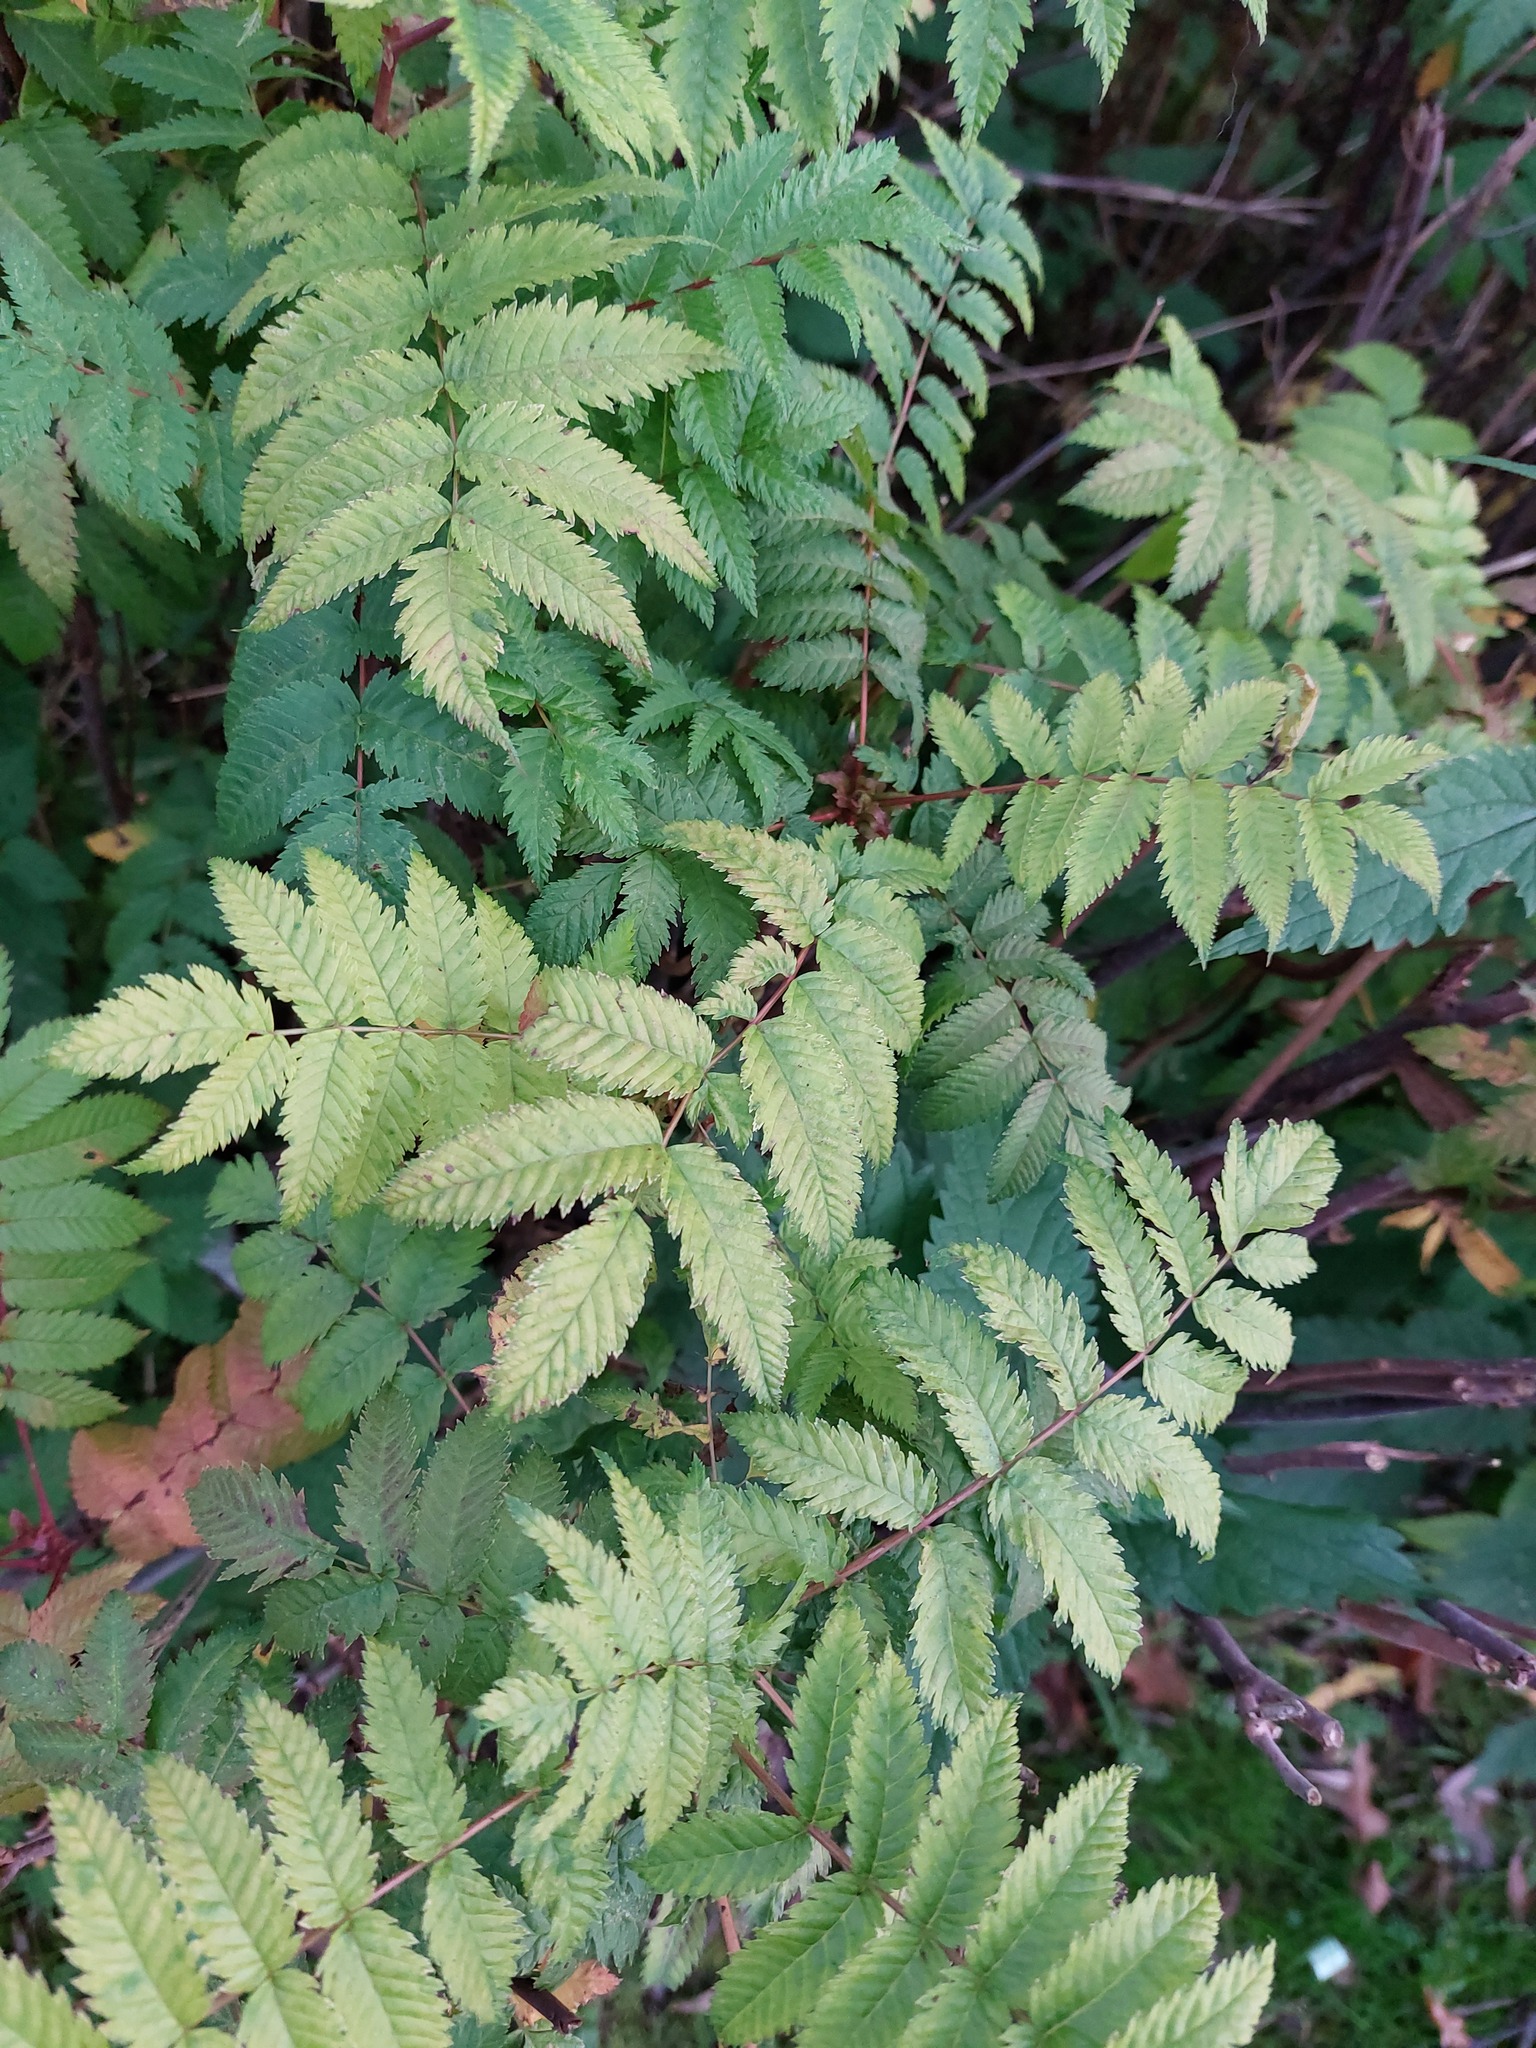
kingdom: Plantae
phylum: Tracheophyta
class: Magnoliopsida
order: Rosales
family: Rosaceae
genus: Sorbaria
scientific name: Sorbaria sorbifolia
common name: False spiraea
